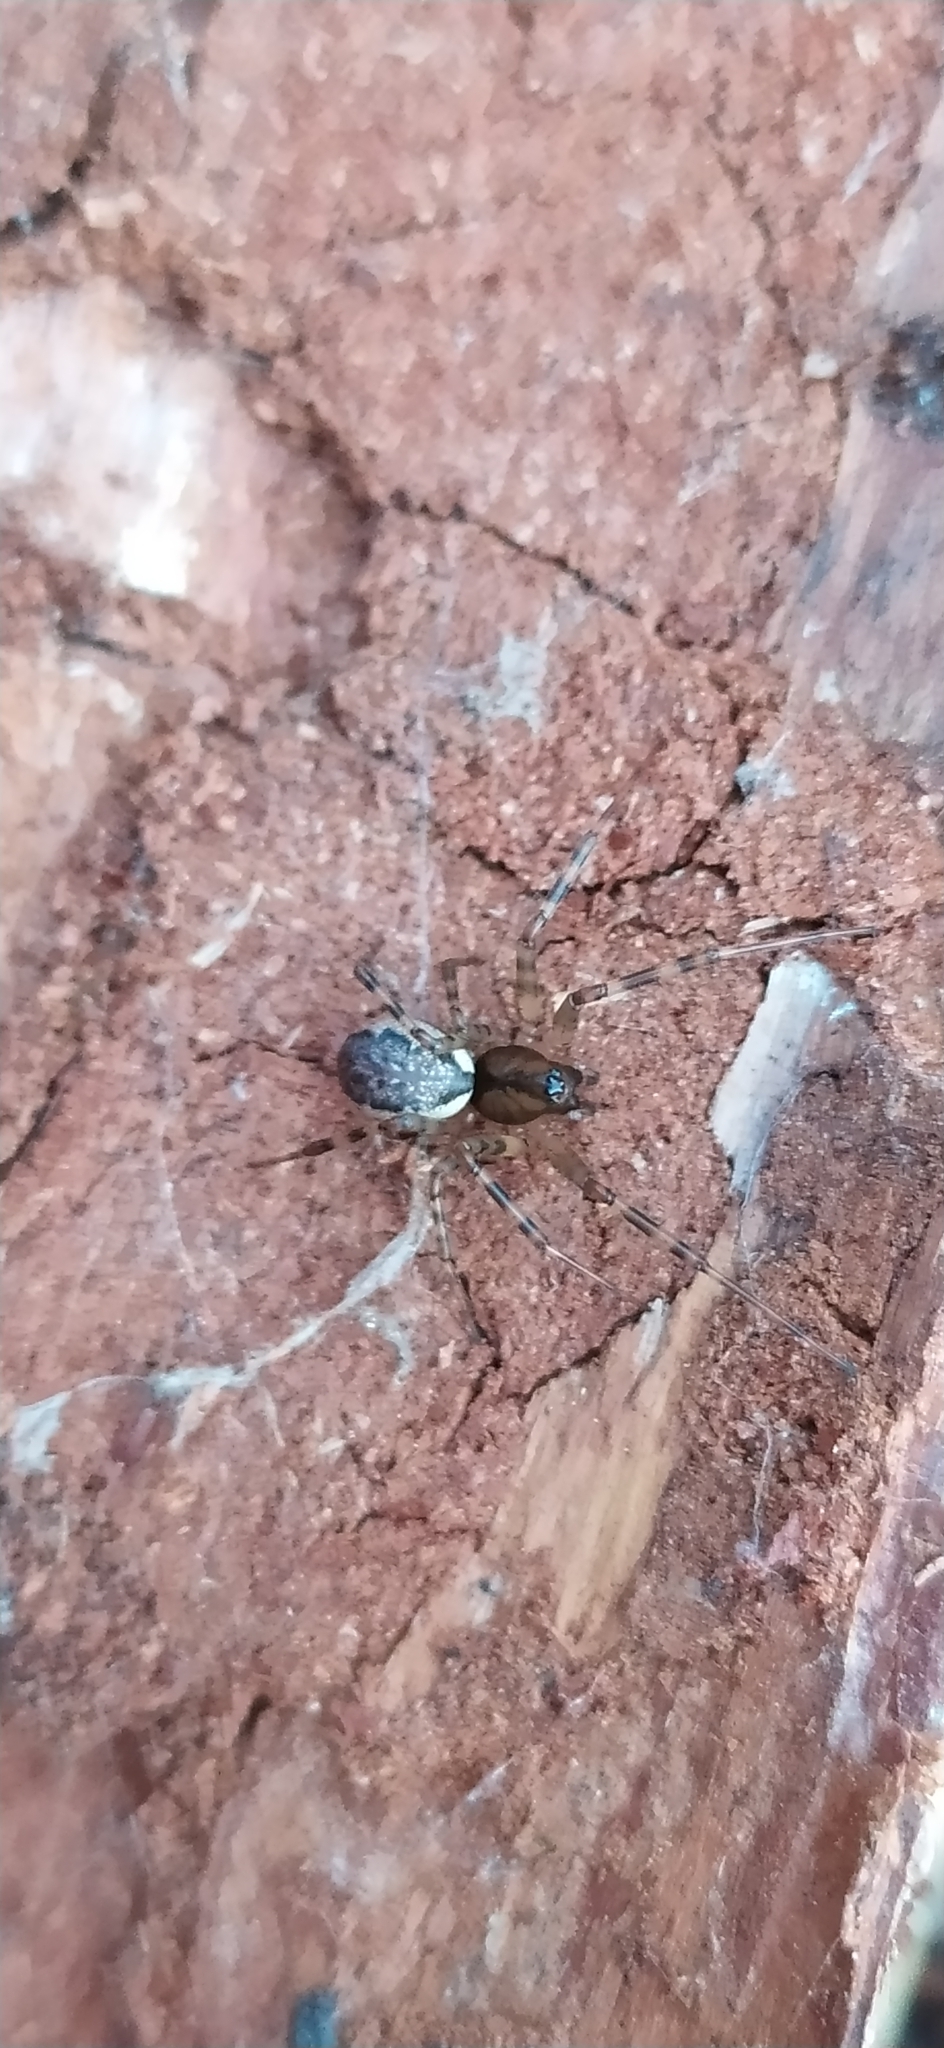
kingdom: Animalia
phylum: Arthropoda
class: Arachnida
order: Araneae
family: Linyphiidae
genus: Neriene
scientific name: Neriene montana
